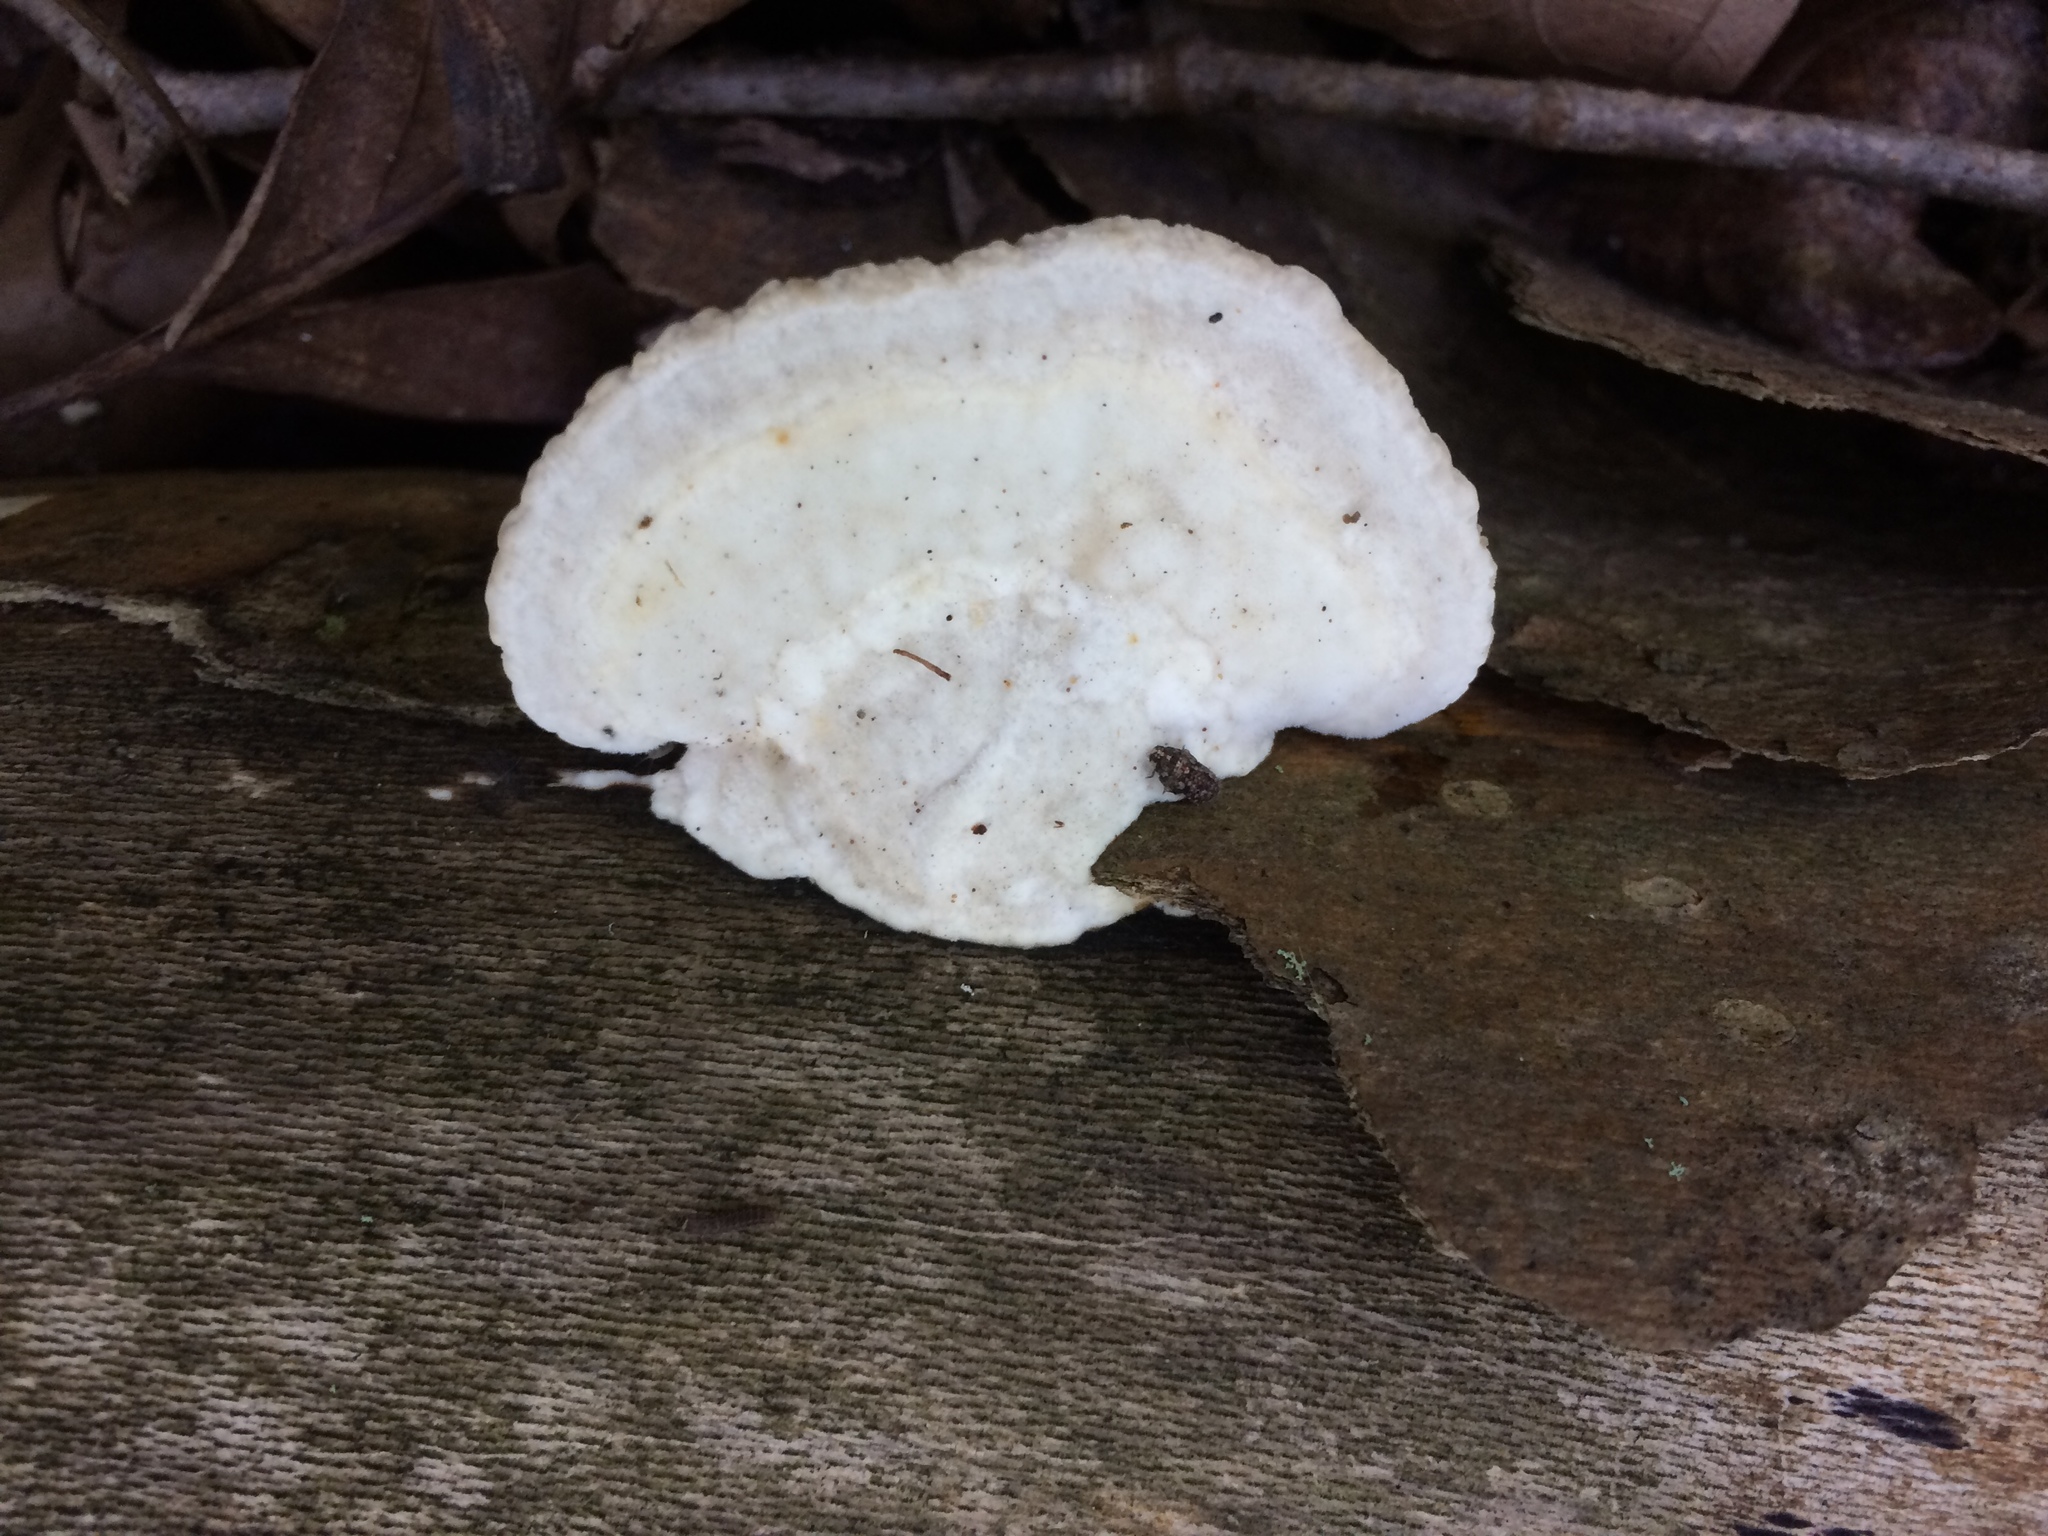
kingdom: Fungi
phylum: Basidiomycota
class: Agaricomycetes
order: Polyporales
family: Polyporaceae
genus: Trametes
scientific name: Trametes gibbosa
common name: Lumpy bracket
